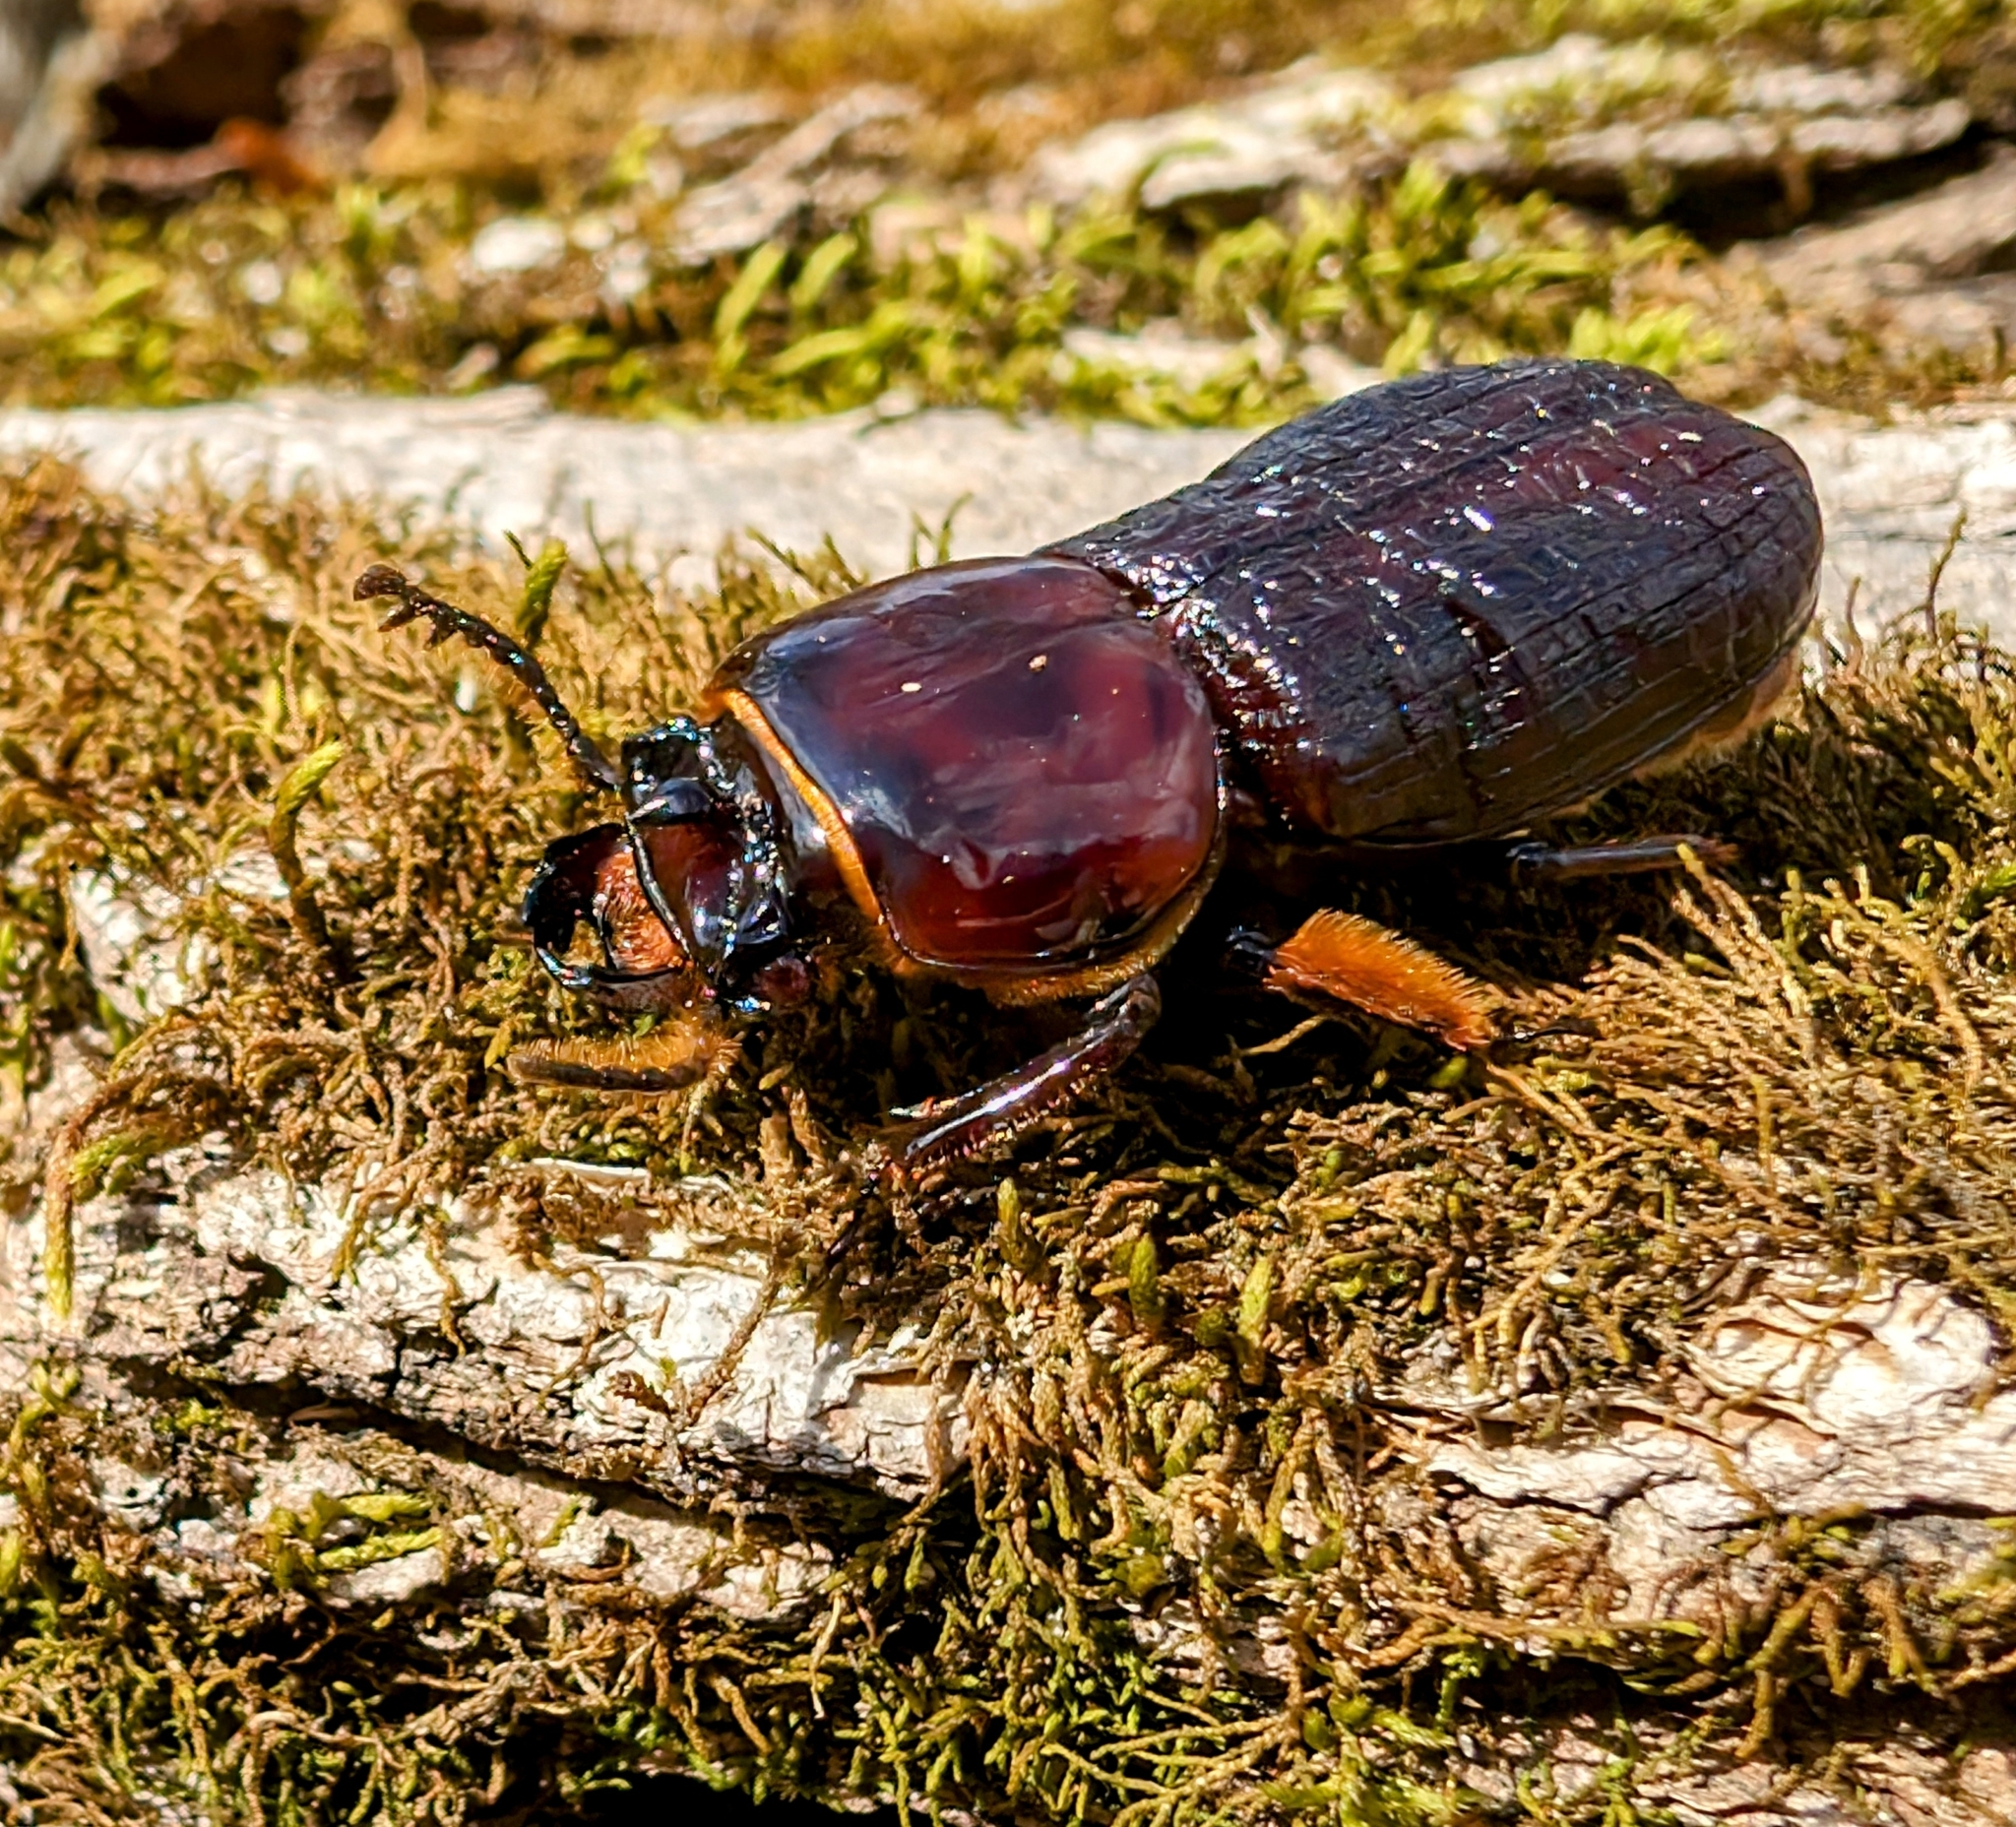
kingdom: Animalia
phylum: Arthropoda
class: Insecta
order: Coleoptera
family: Passalidae
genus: Odontotaenius
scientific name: Odontotaenius disjunctus
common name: Patent leather beetle
